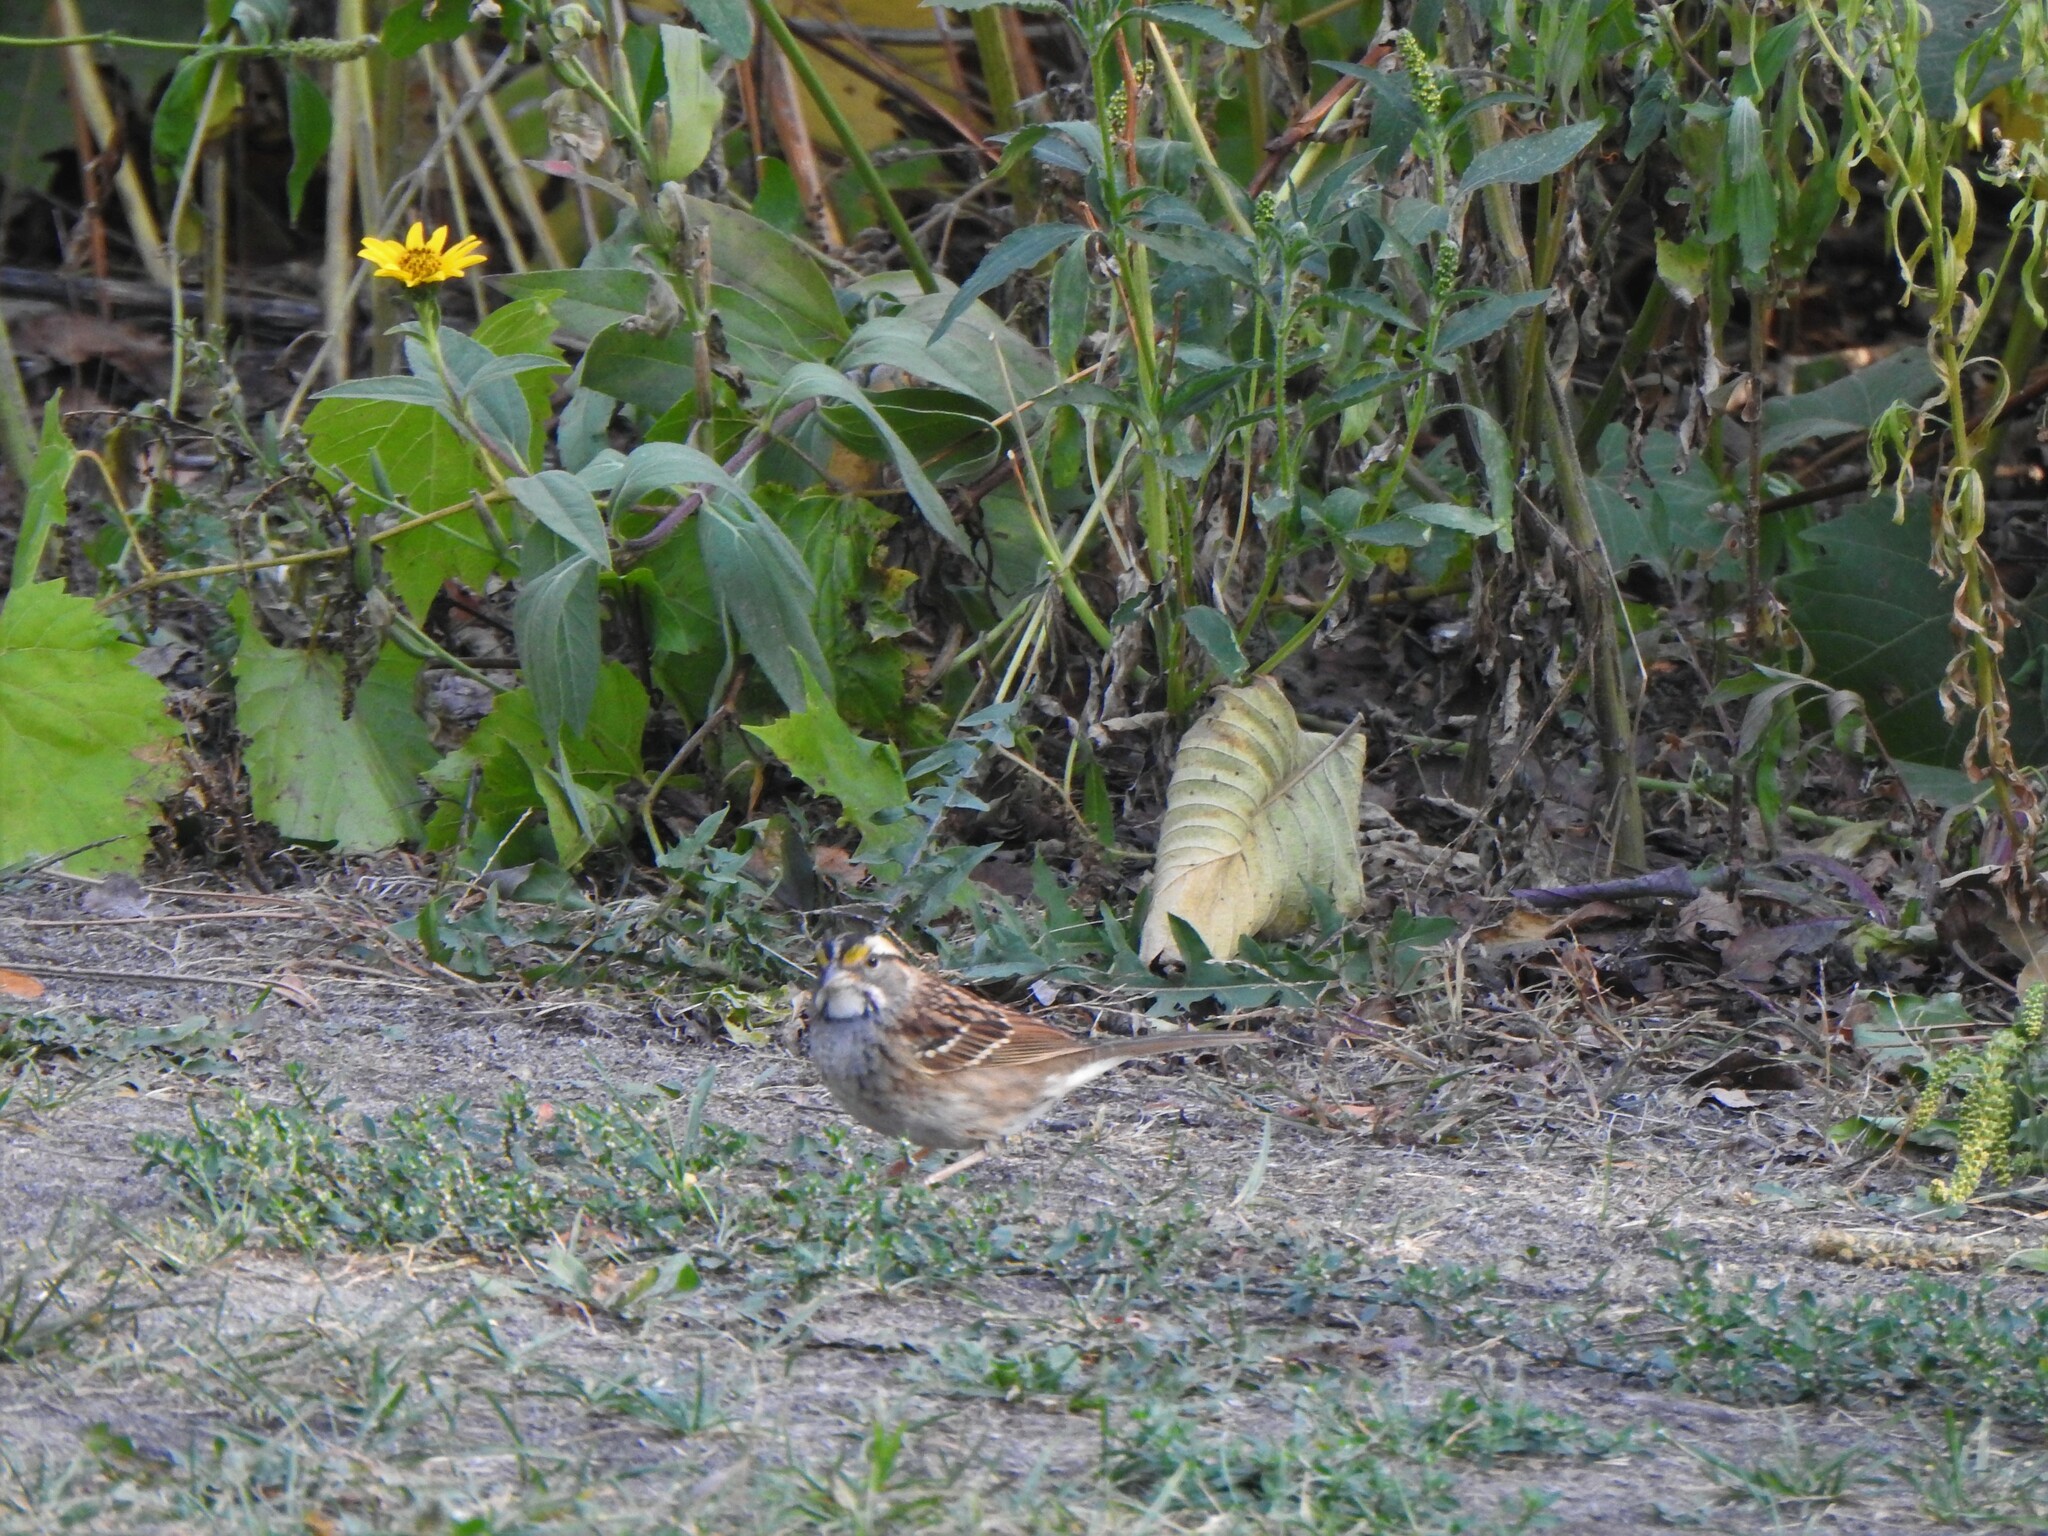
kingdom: Animalia
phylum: Chordata
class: Aves
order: Passeriformes
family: Passerellidae
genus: Zonotrichia
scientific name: Zonotrichia albicollis
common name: White-throated sparrow
